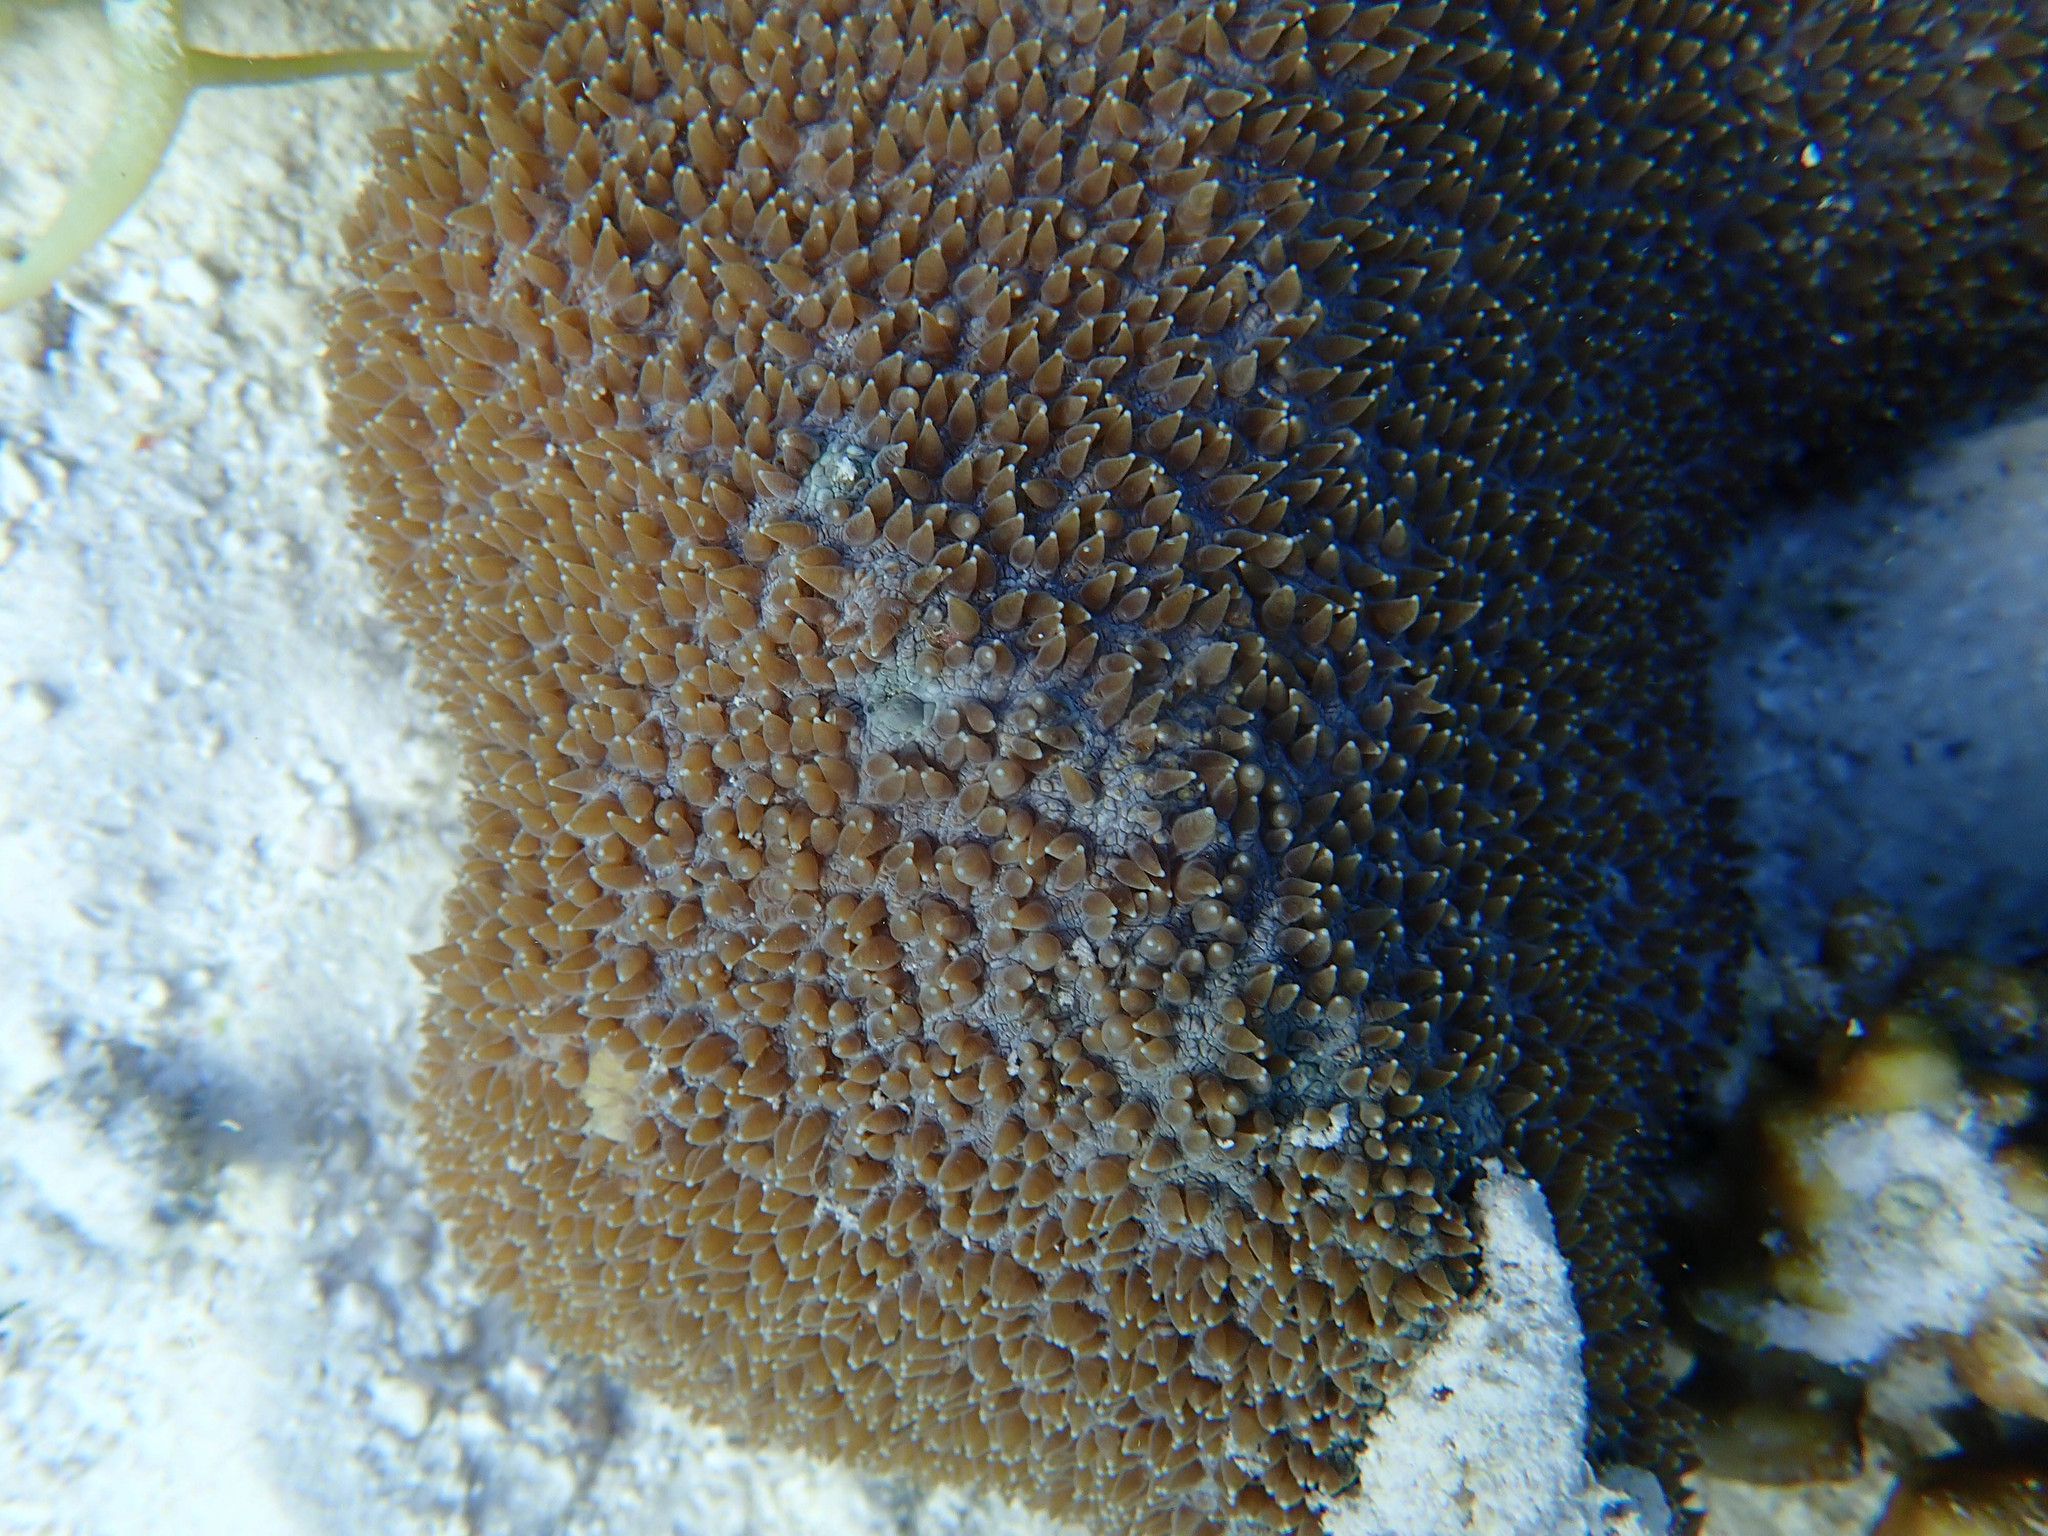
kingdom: Animalia
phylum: Cnidaria
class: Anthozoa
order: Scleractinia
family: Fungiidae
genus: Polyphyllia
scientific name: Polyphyllia talpina
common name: Joker's boomerang coral
